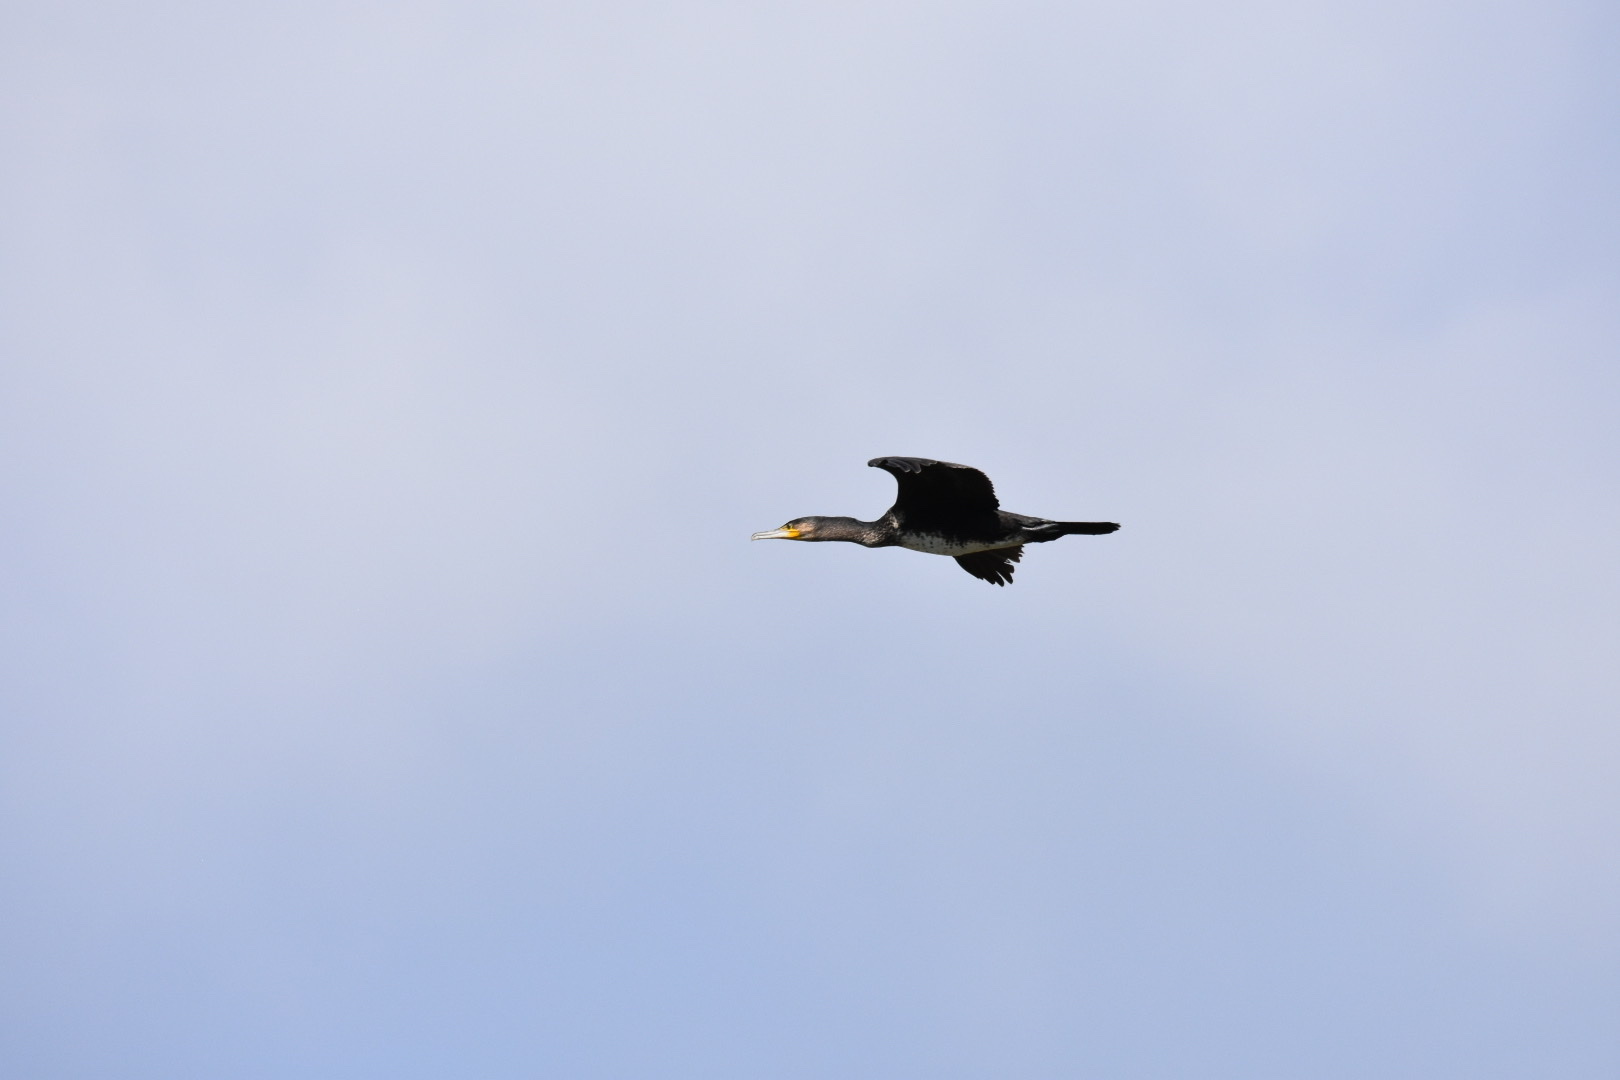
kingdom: Animalia
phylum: Chordata
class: Aves
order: Suliformes
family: Phalacrocoracidae
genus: Phalacrocorax
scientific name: Phalacrocorax carbo
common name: Great cormorant
